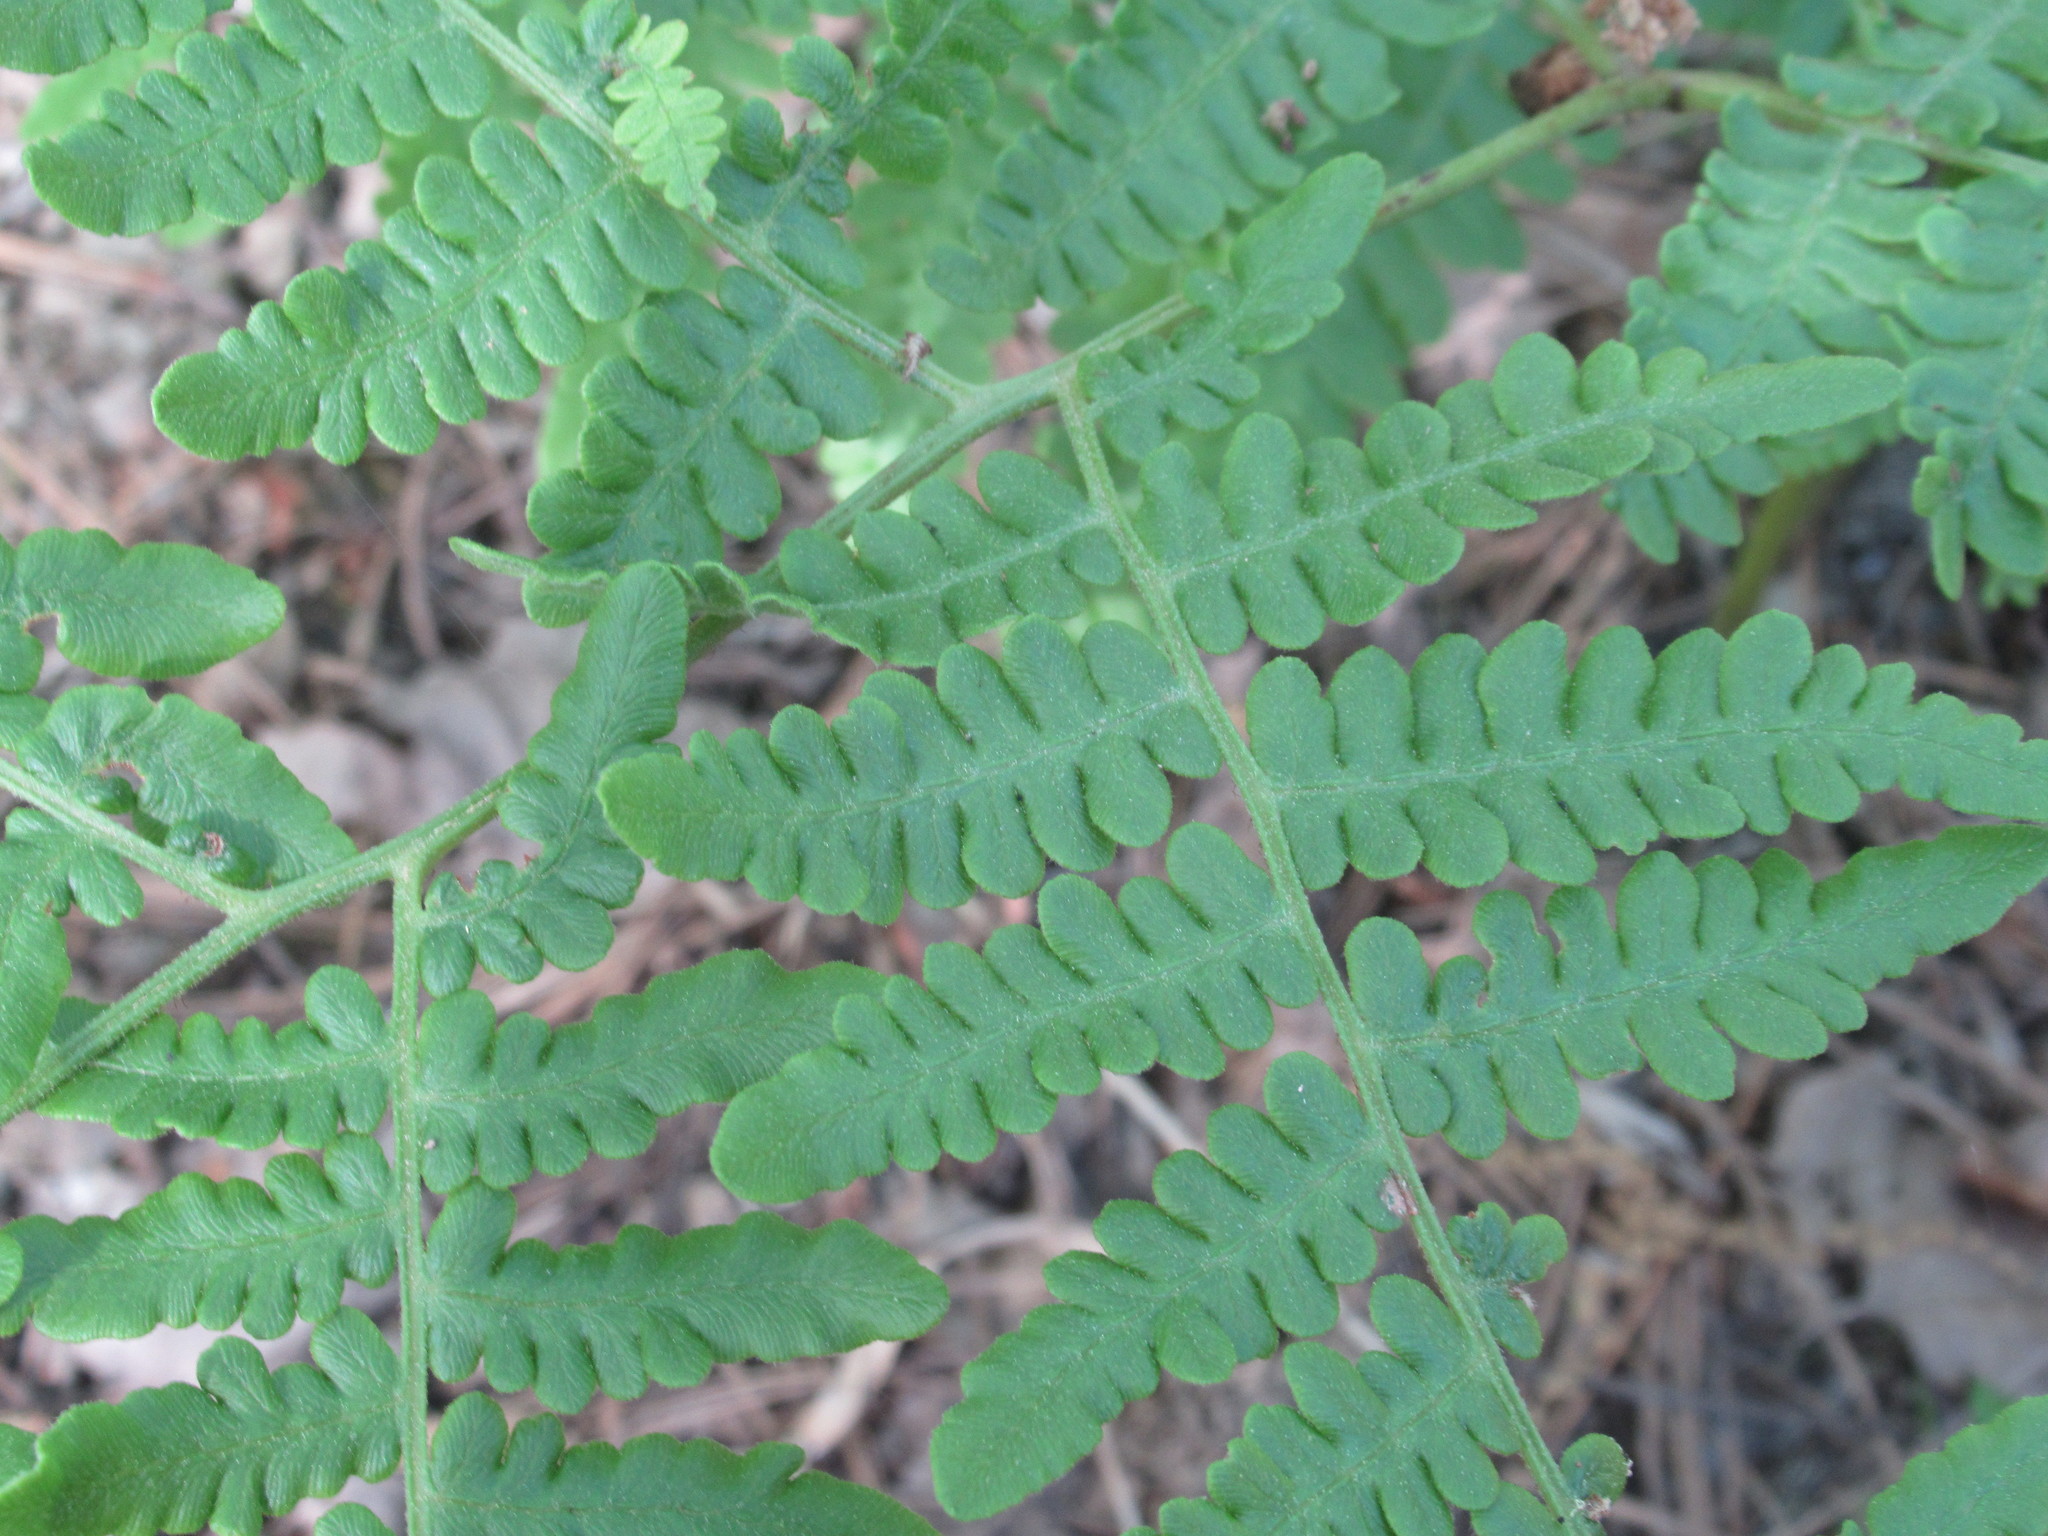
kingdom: Plantae
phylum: Tracheophyta
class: Polypodiopsida
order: Polypodiales
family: Dennstaedtiaceae
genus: Pteridium
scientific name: Pteridium aquilinum
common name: Bracken
